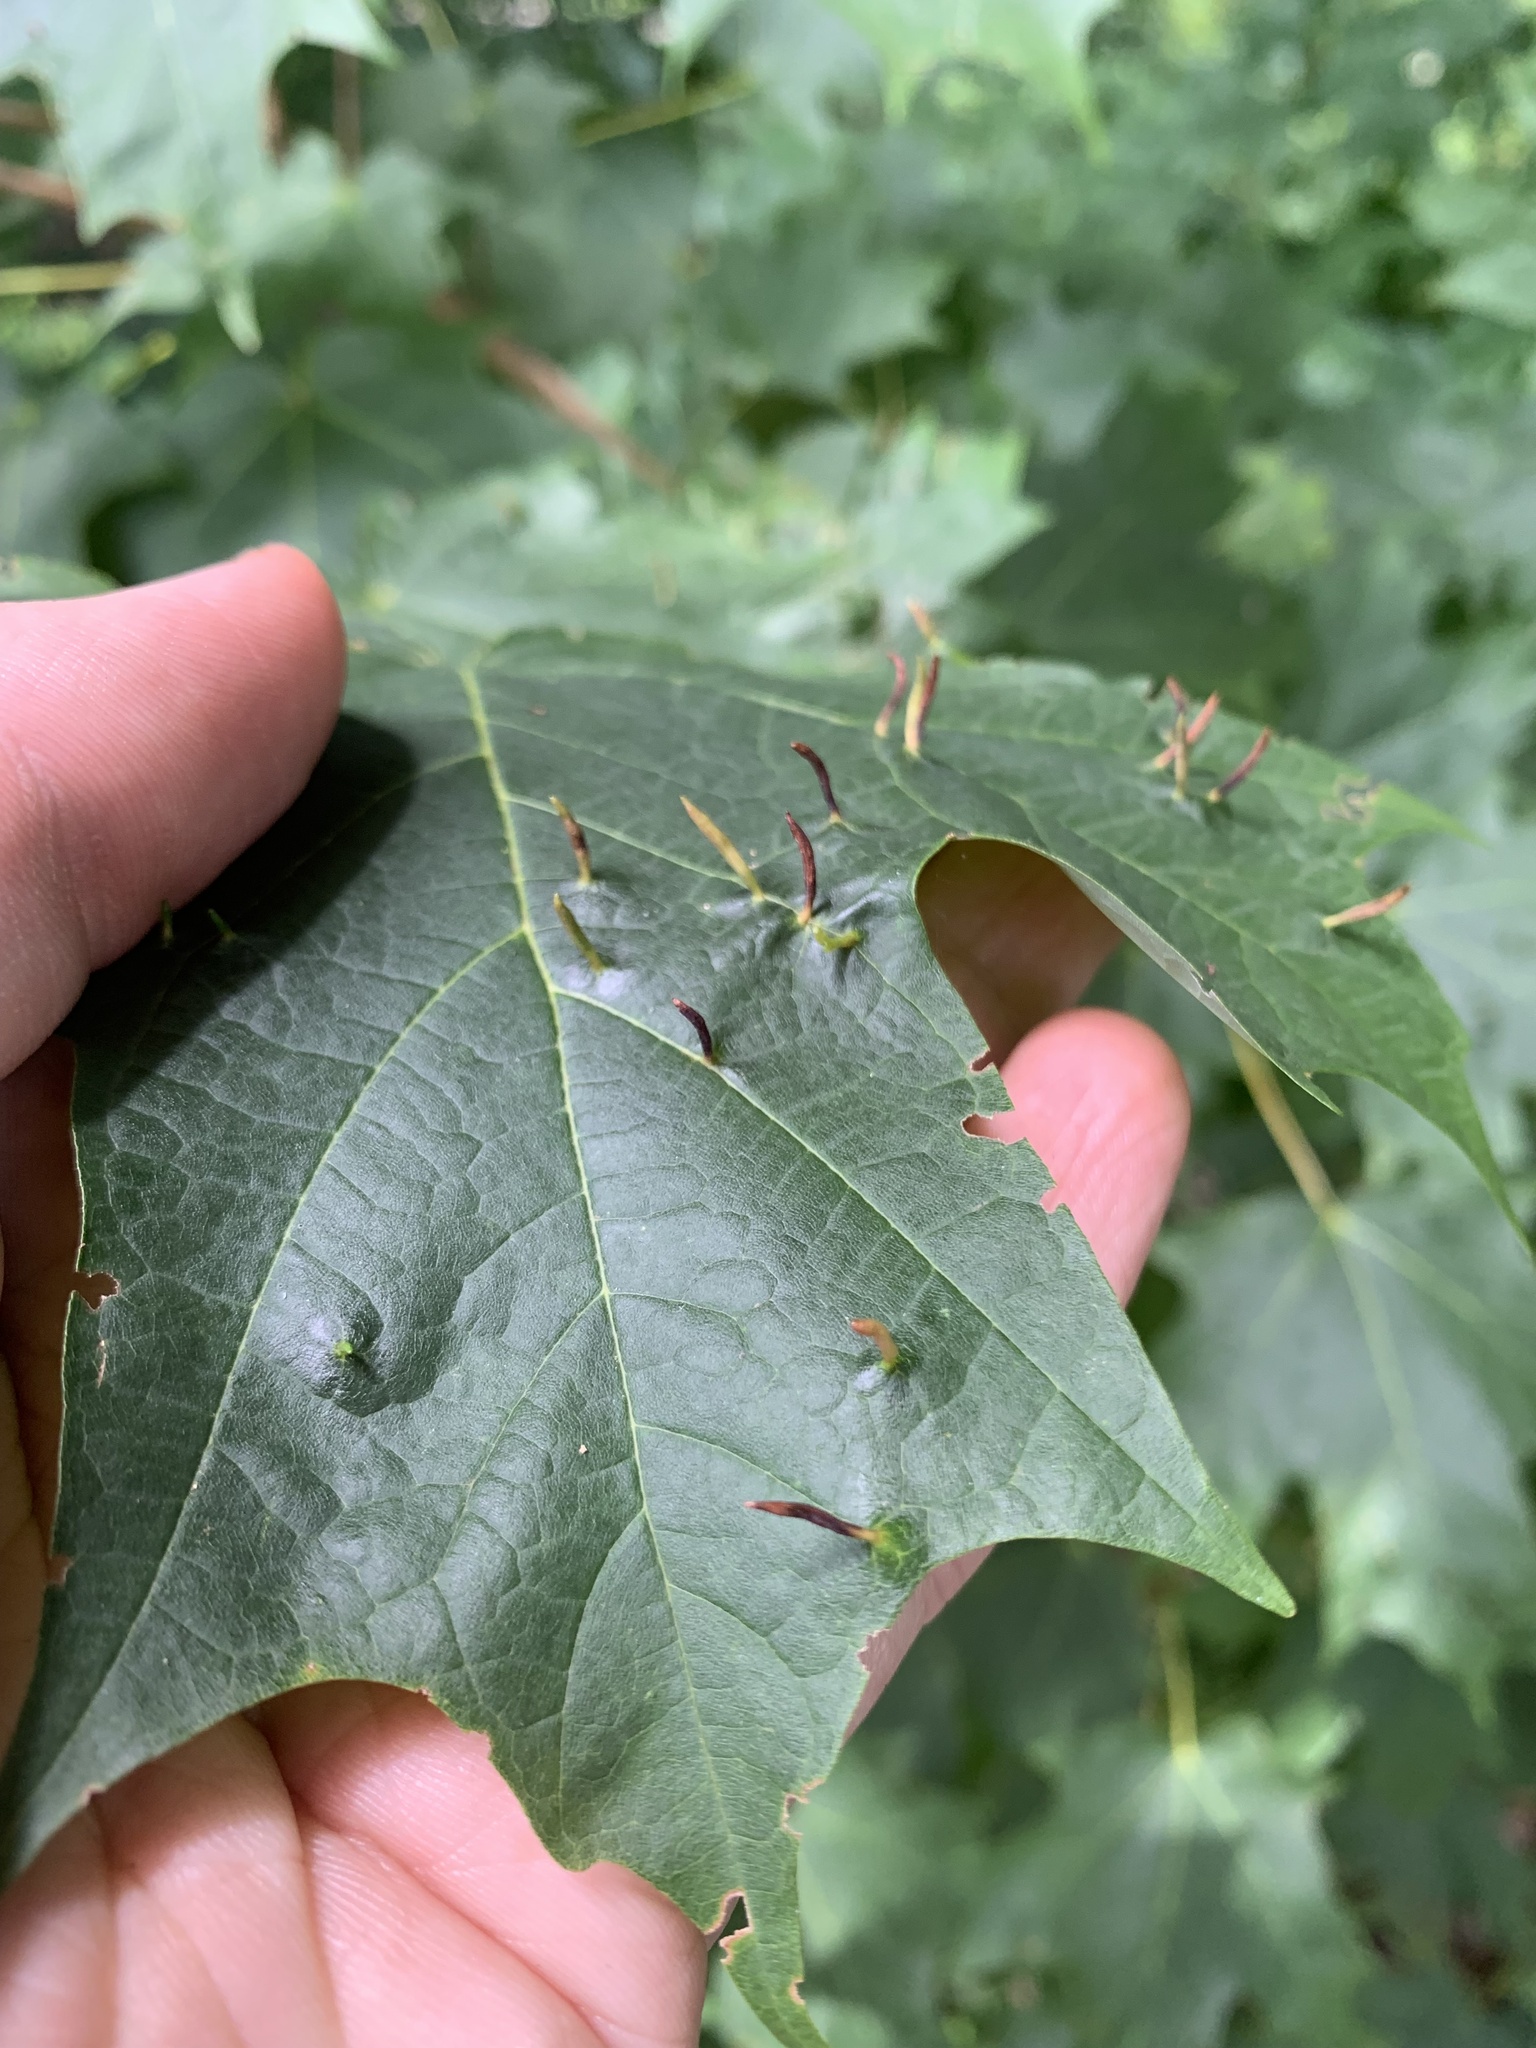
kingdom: Animalia
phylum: Arthropoda
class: Arachnida
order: Trombidiformes
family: Eriophyidae
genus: Vasates
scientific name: Vasates aceriscrumena
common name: Maple spindle gall mite
